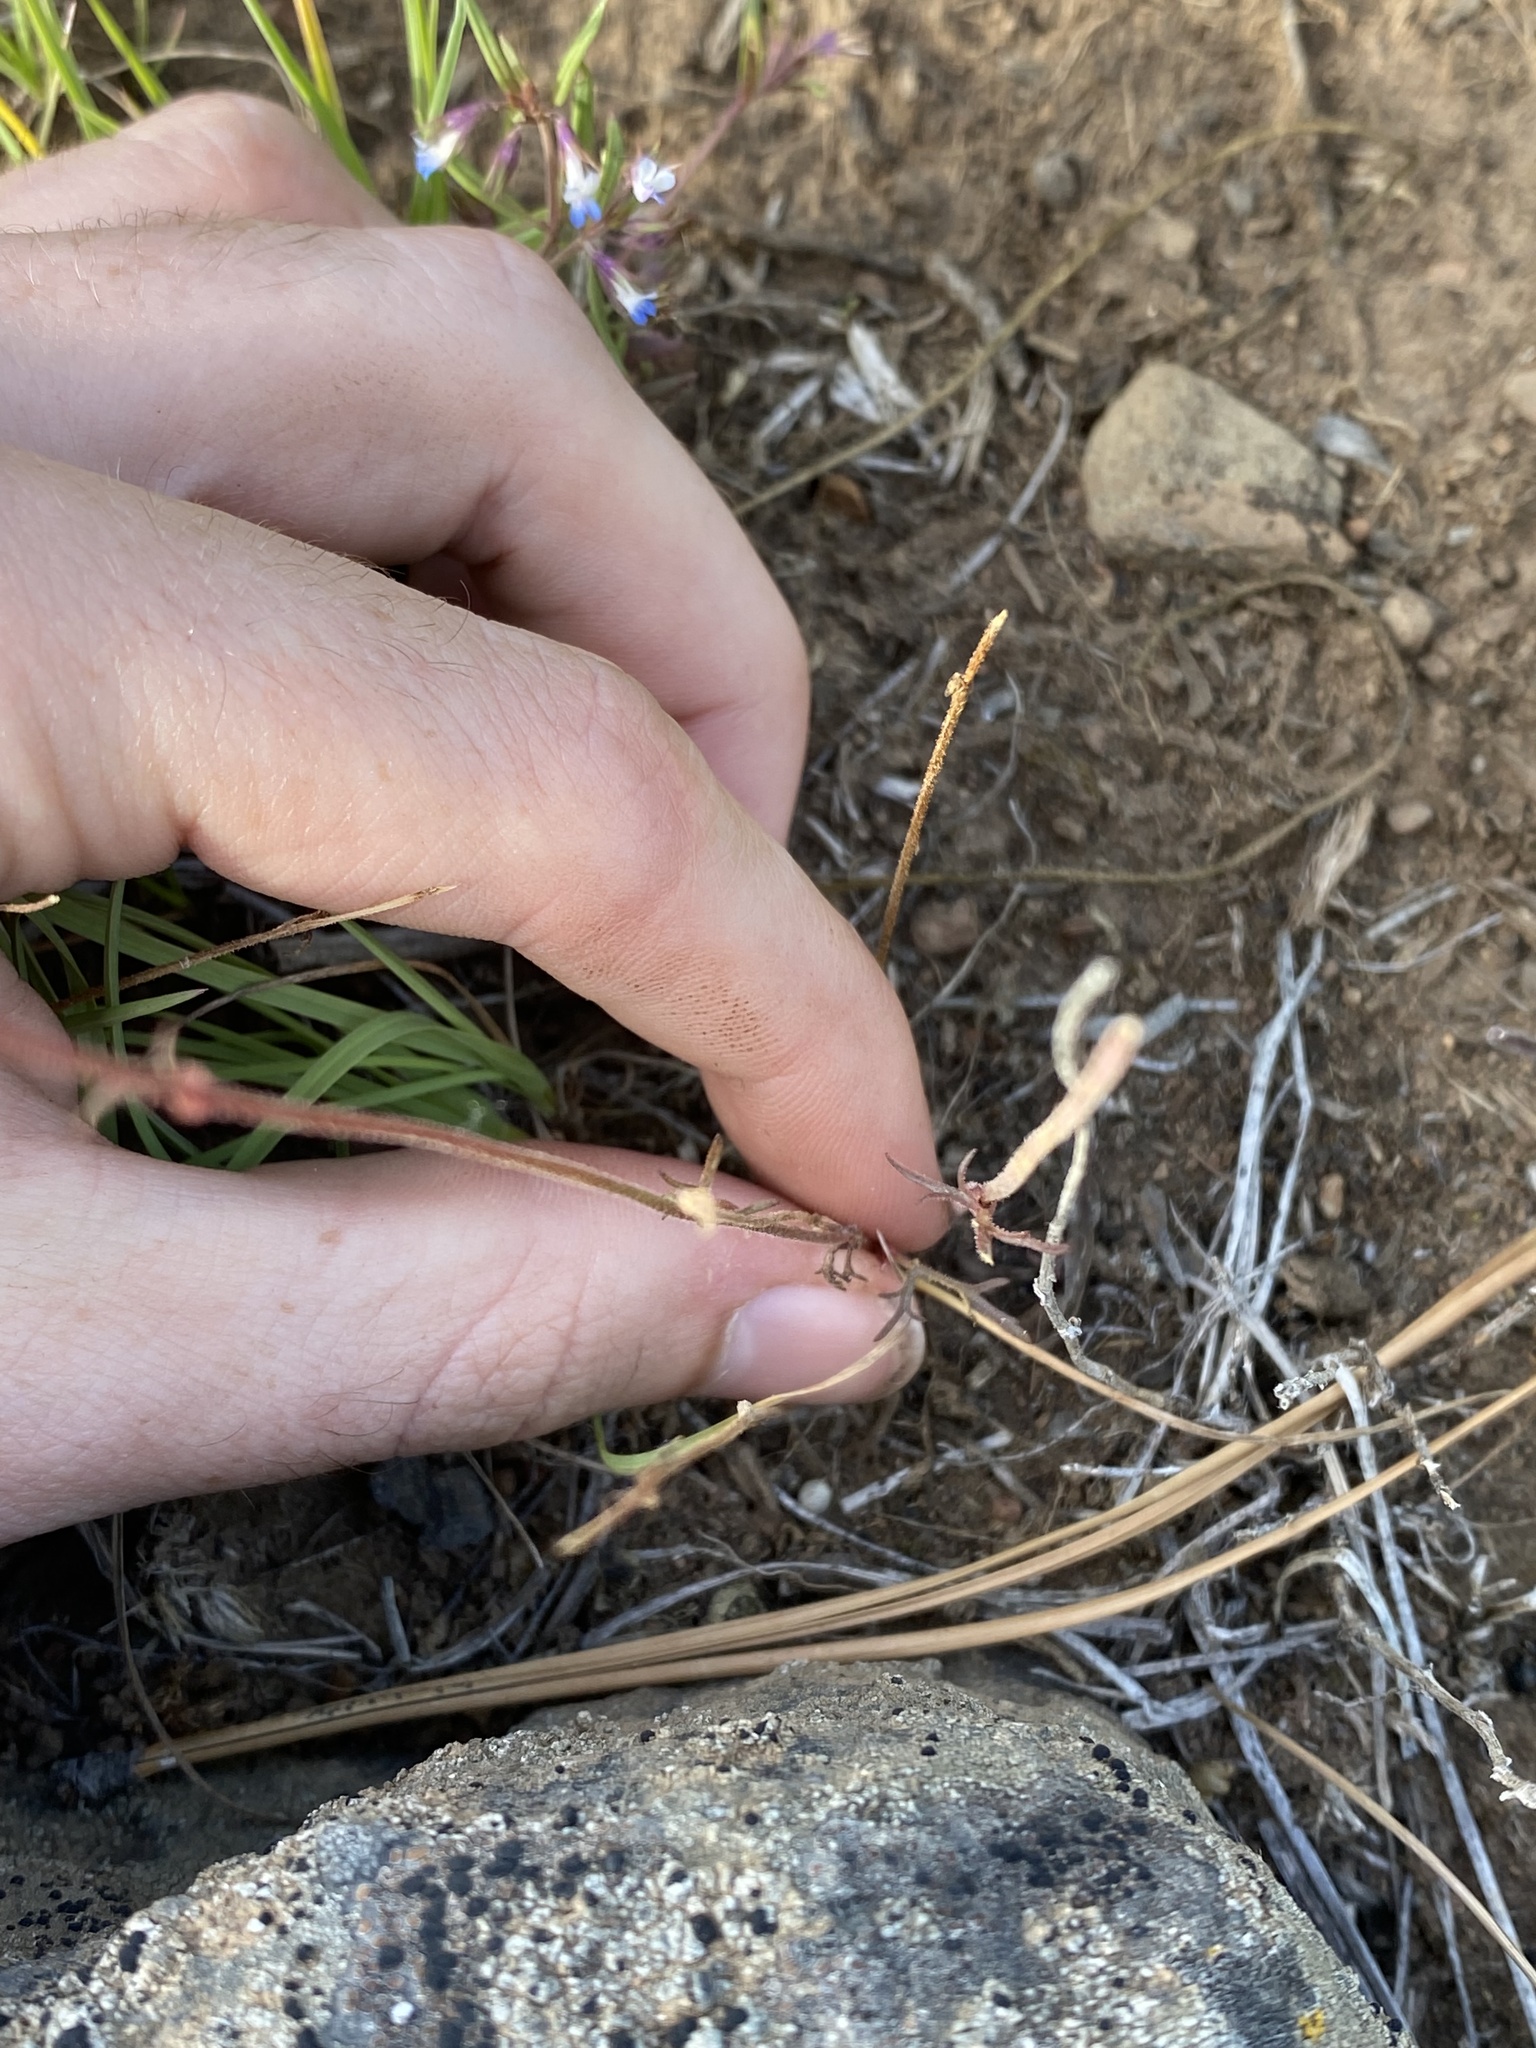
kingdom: Plantae
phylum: Tracheophyta
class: Magnoliopsida
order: Saxifragales
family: Saxifragaceae
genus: Lithophragma
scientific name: Lithophragma tenella
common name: Slender fringe-cup
